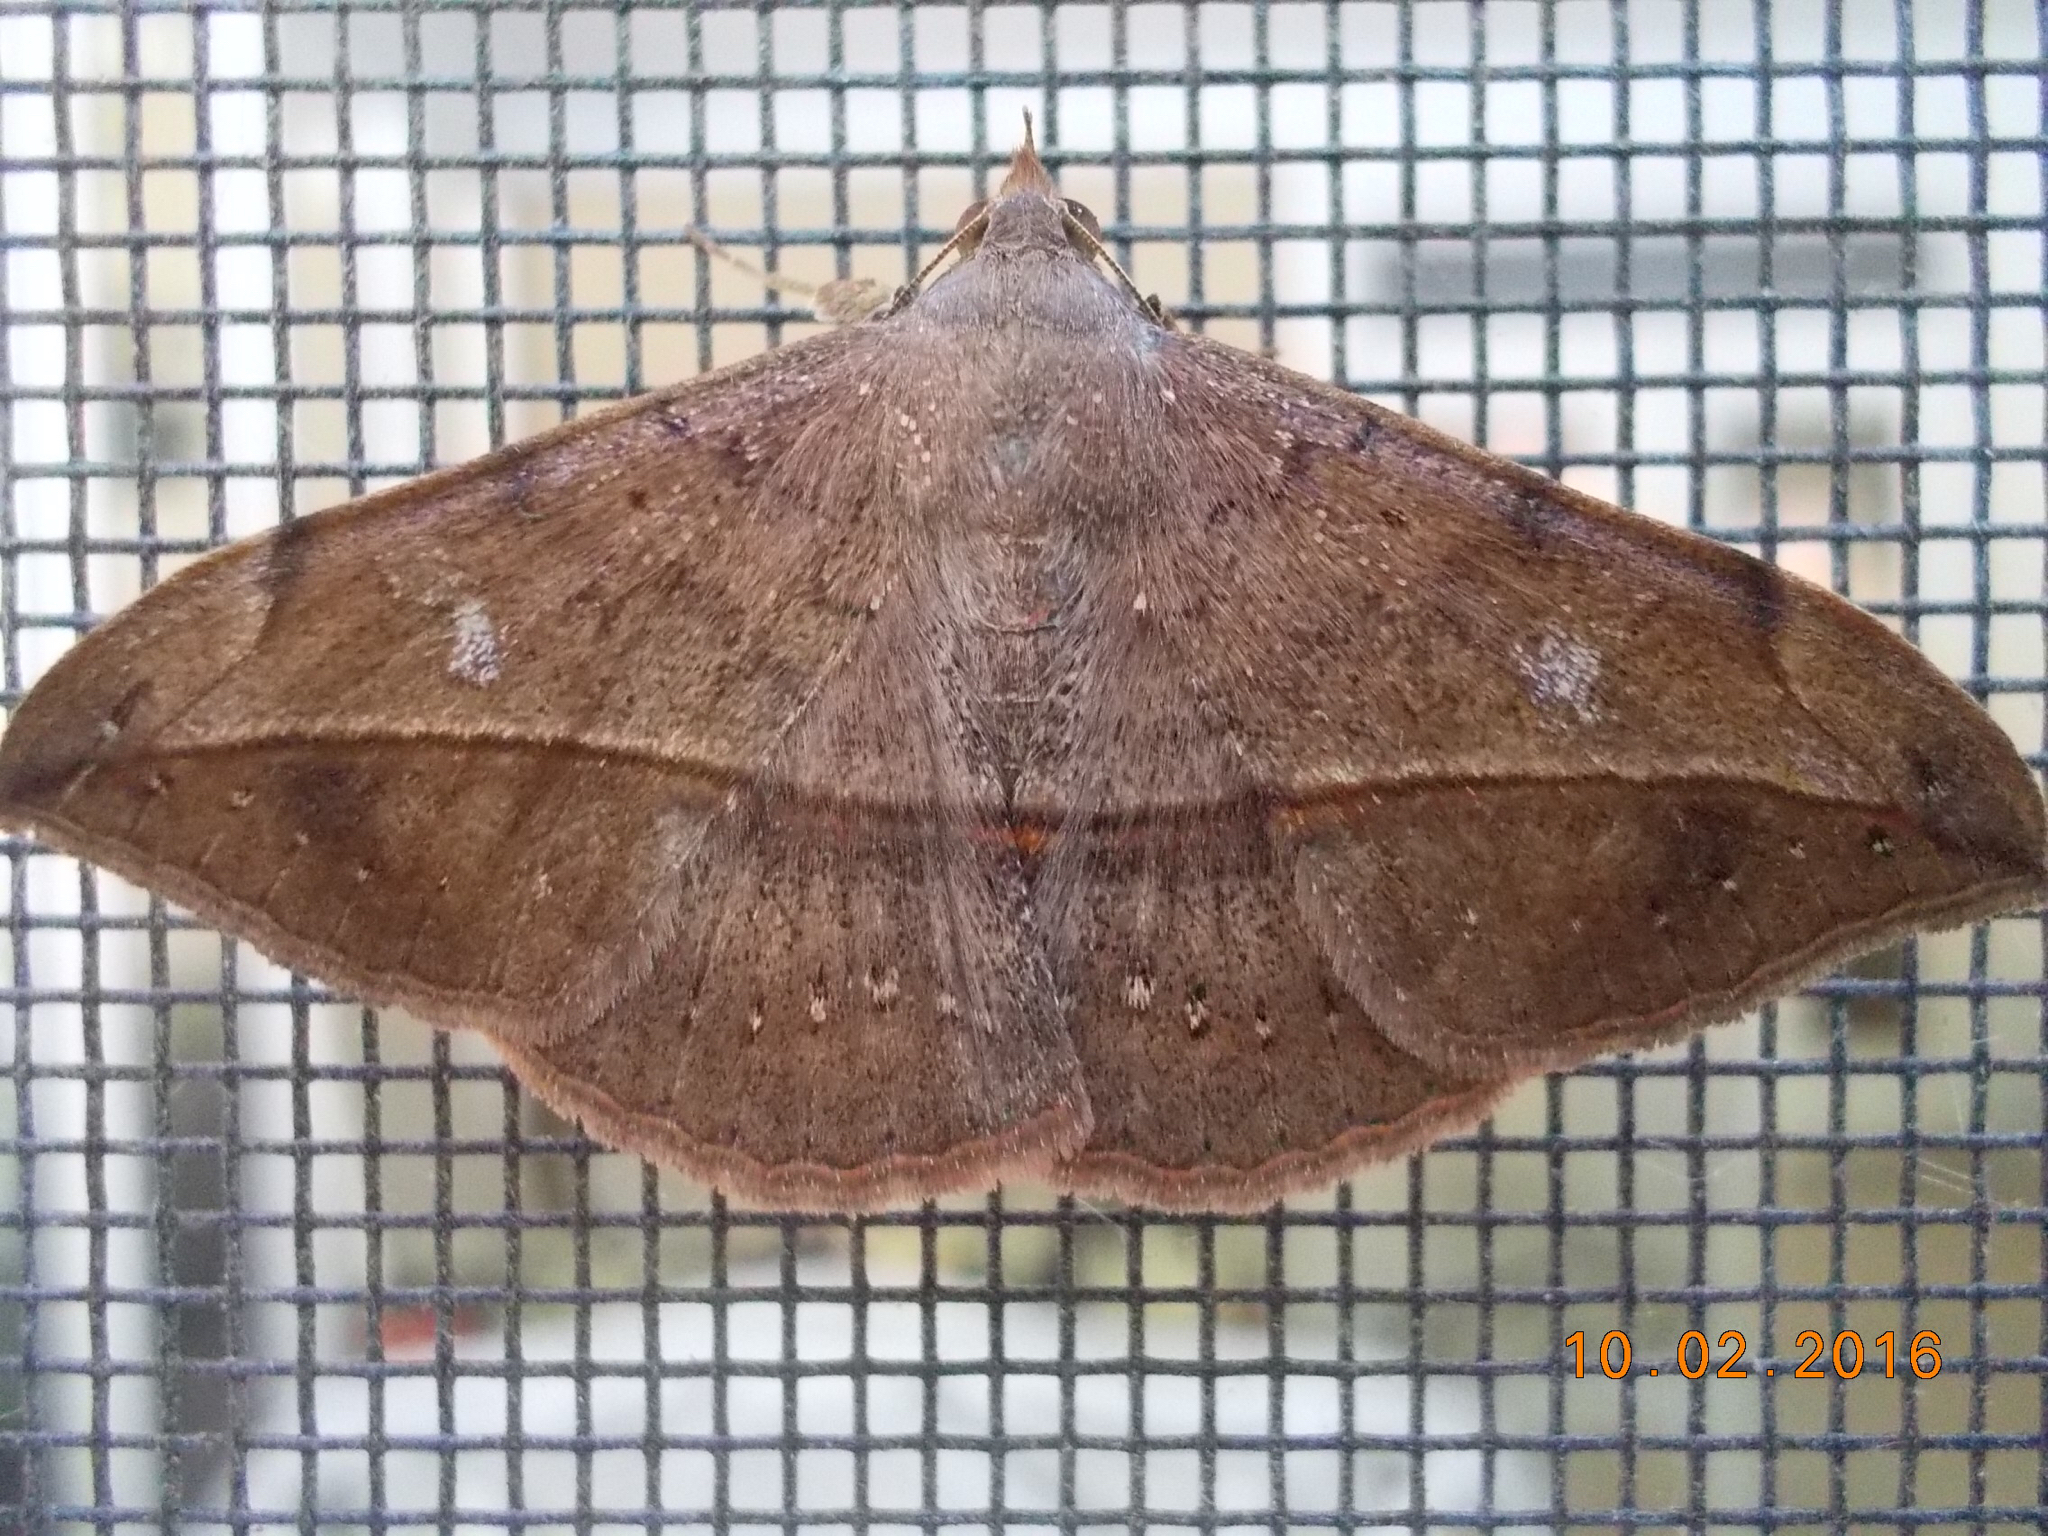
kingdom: Animalia
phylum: Arthropoda
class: Insecta
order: Lepidoptera
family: Erebidae
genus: Anticarsia
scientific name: Anticarsia gemmatalis
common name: Cutworm moth
